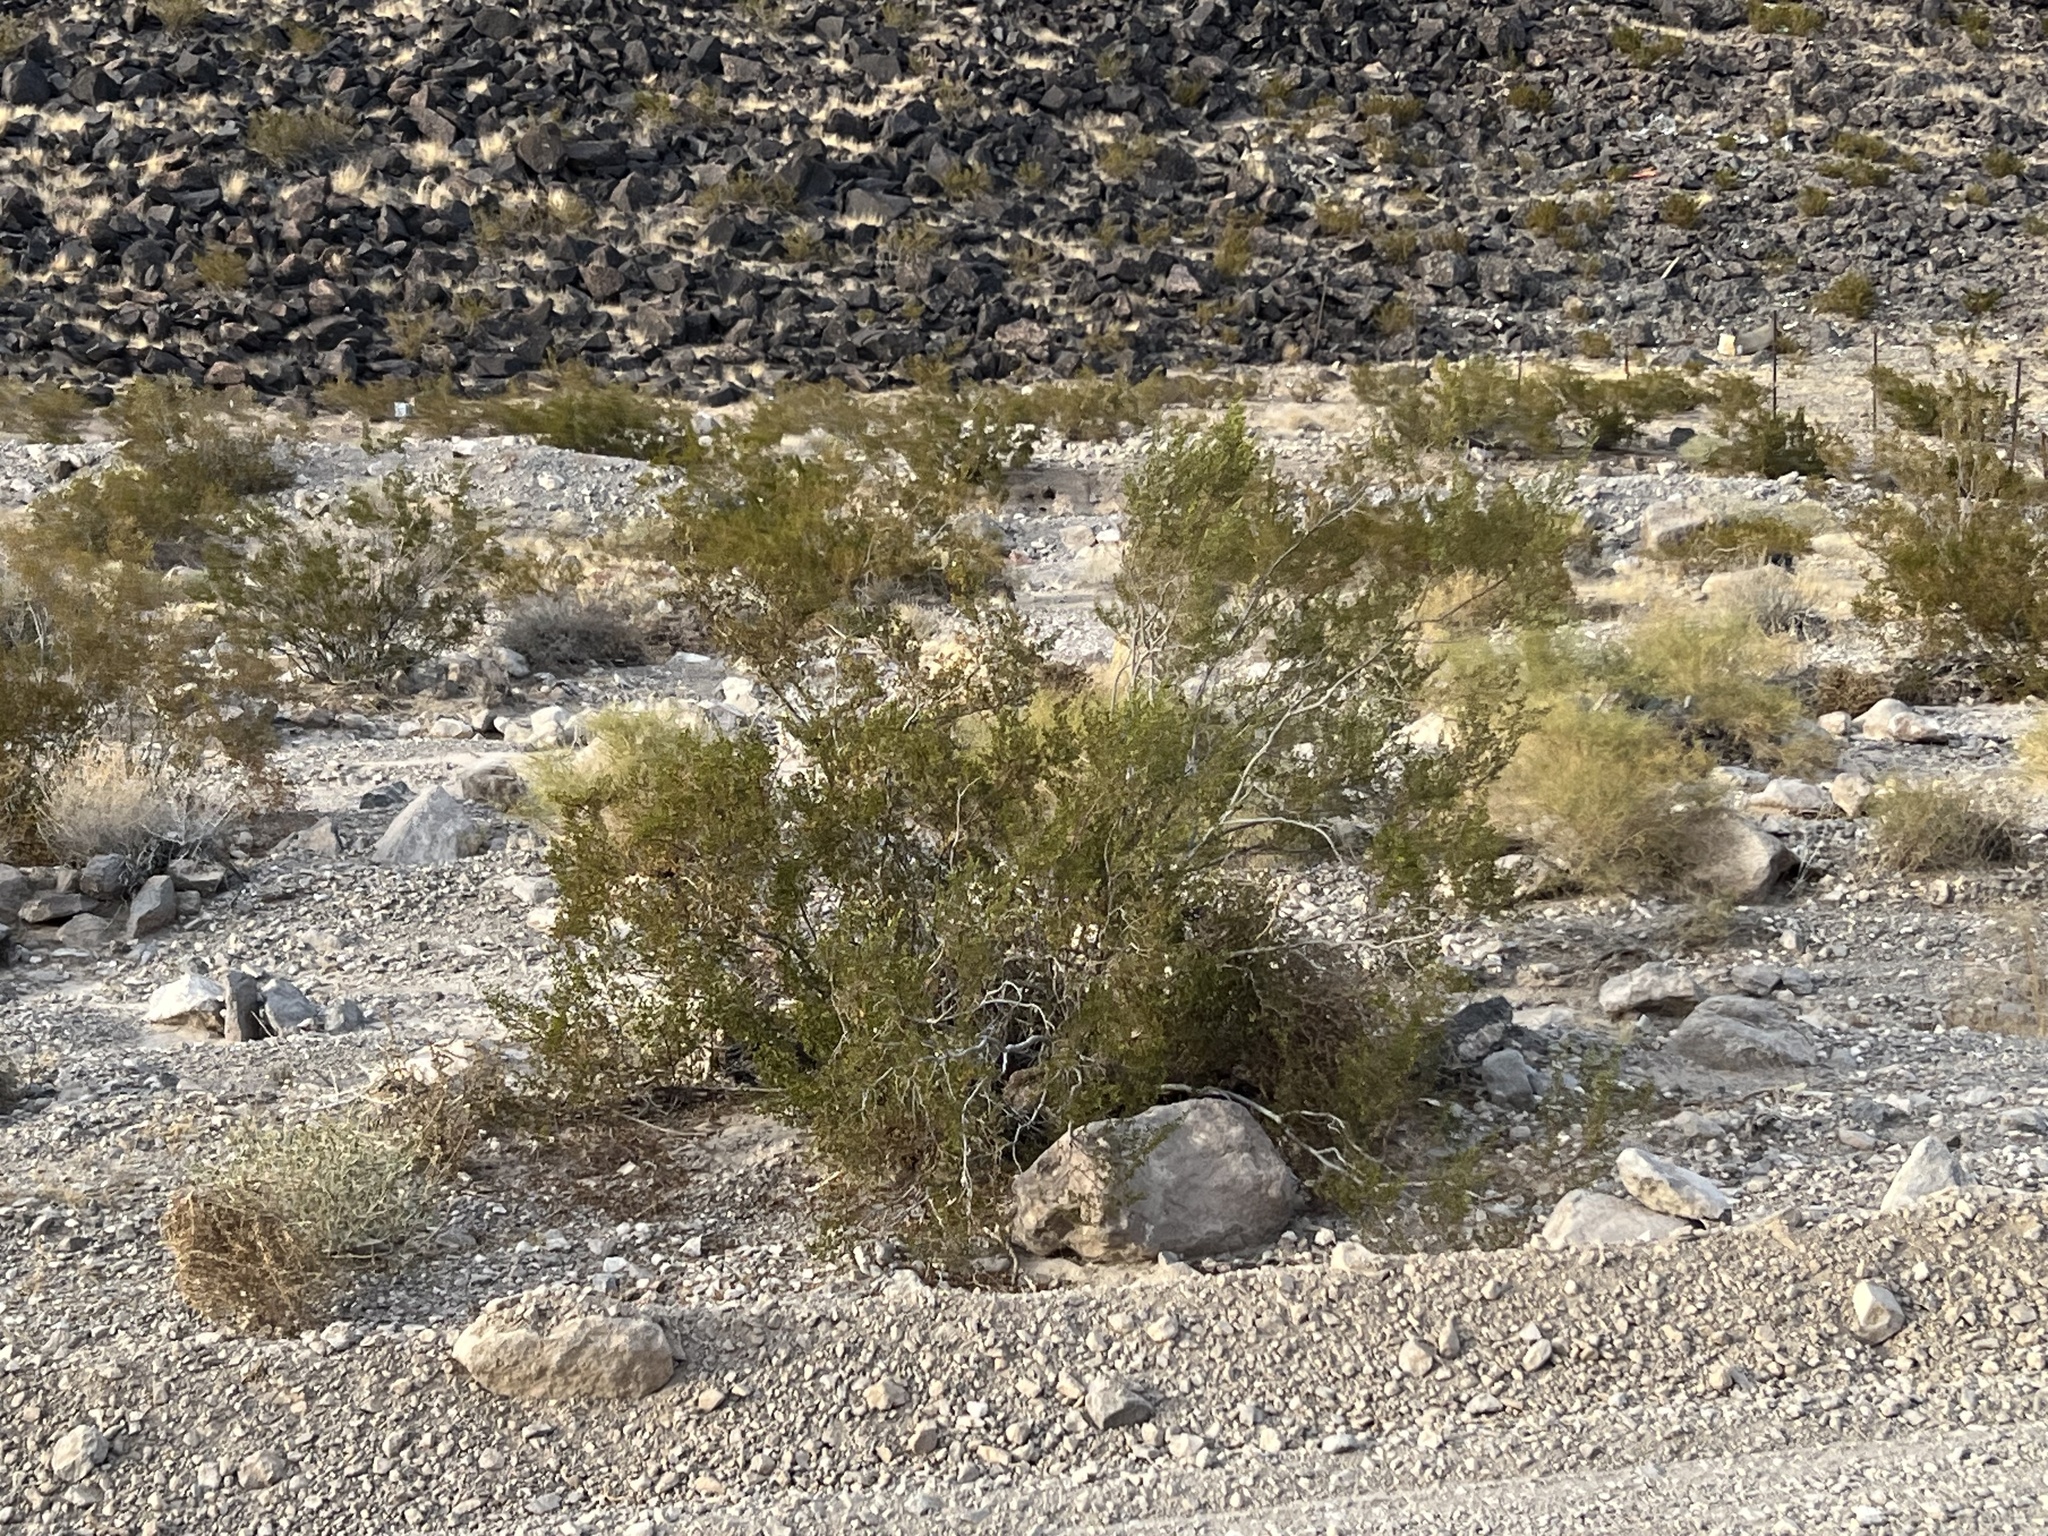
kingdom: Plantae
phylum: Tracheophyta
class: Magnoliopsida
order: Zygophyllales
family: Zygophyllaceae
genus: Larrea
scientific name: Larrea tridentata
